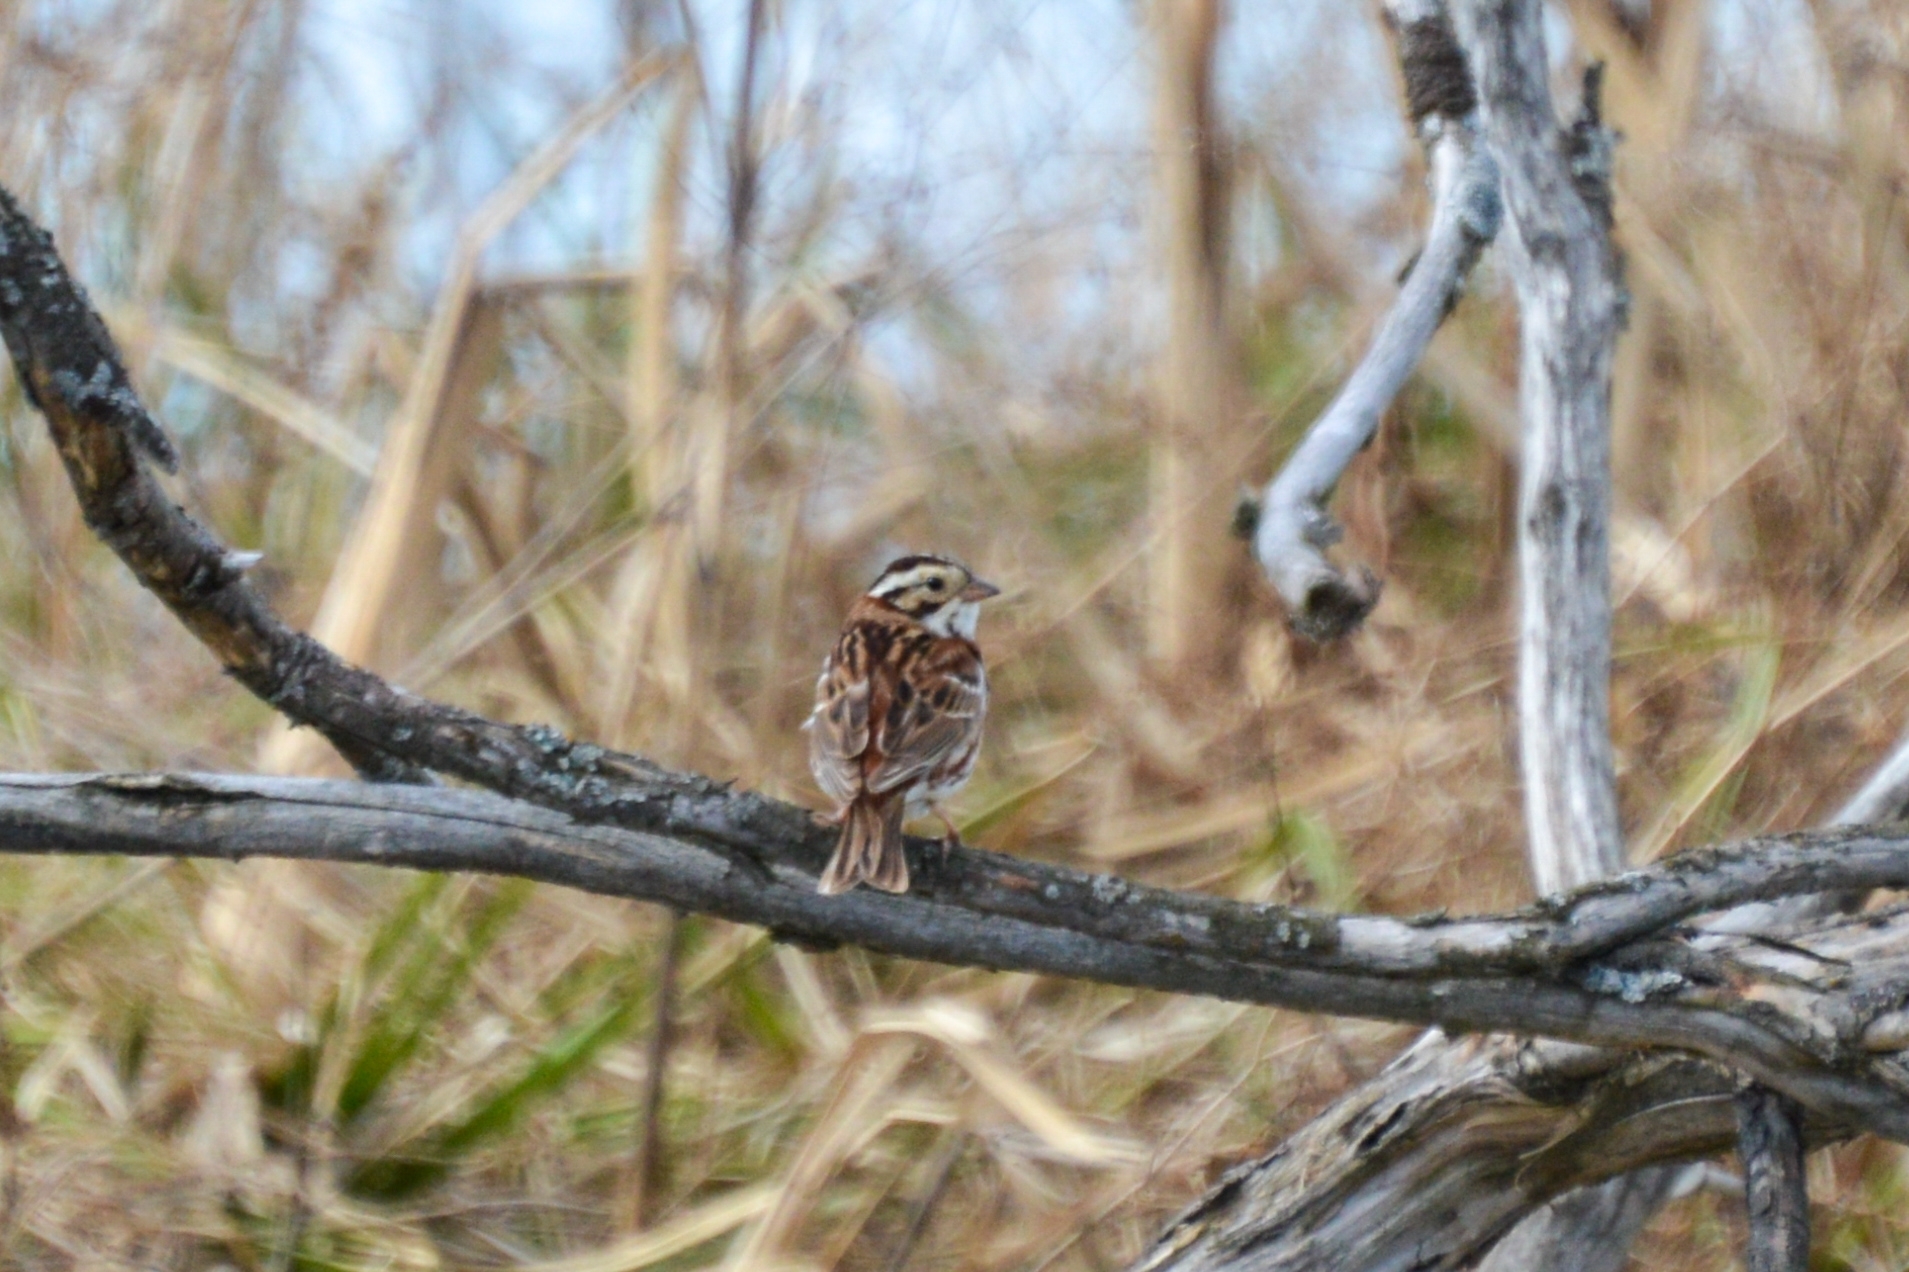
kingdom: Animalia
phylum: Chordata
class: Aves
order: Passeriformes
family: Emberizidae
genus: Emberiza
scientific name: Emberiza rustica
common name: Rustic bunting
